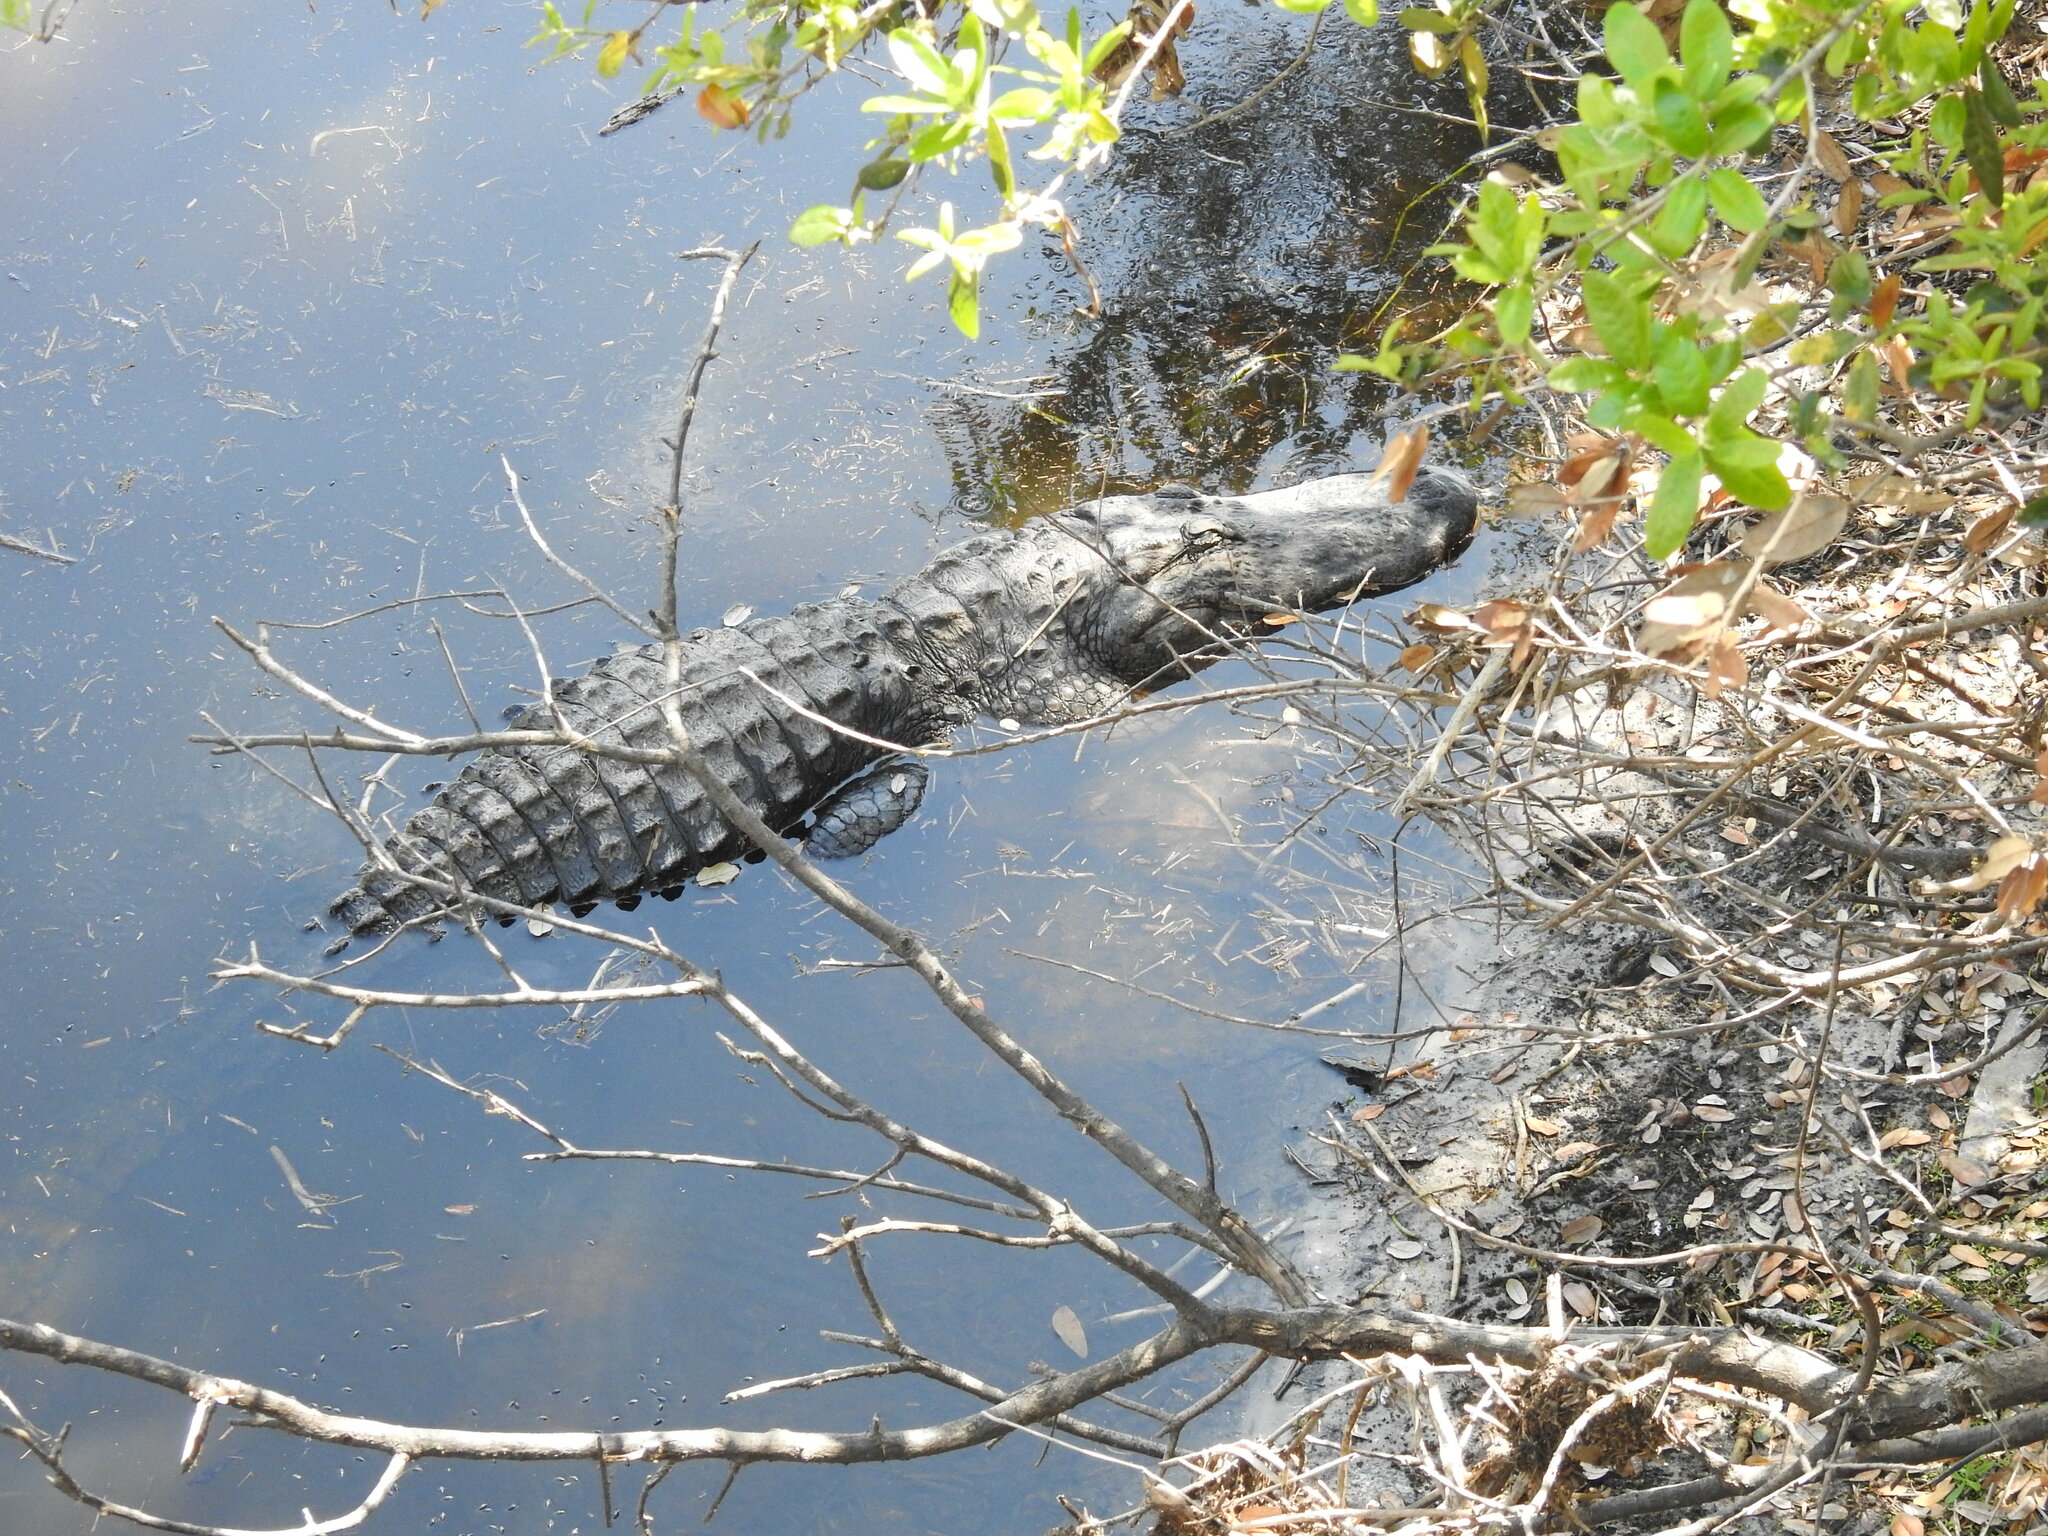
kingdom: Animalia
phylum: Chordata
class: Crocodylia
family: Alligatoridae
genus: Alligator
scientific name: Alligator mississippiensis
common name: American alligator
